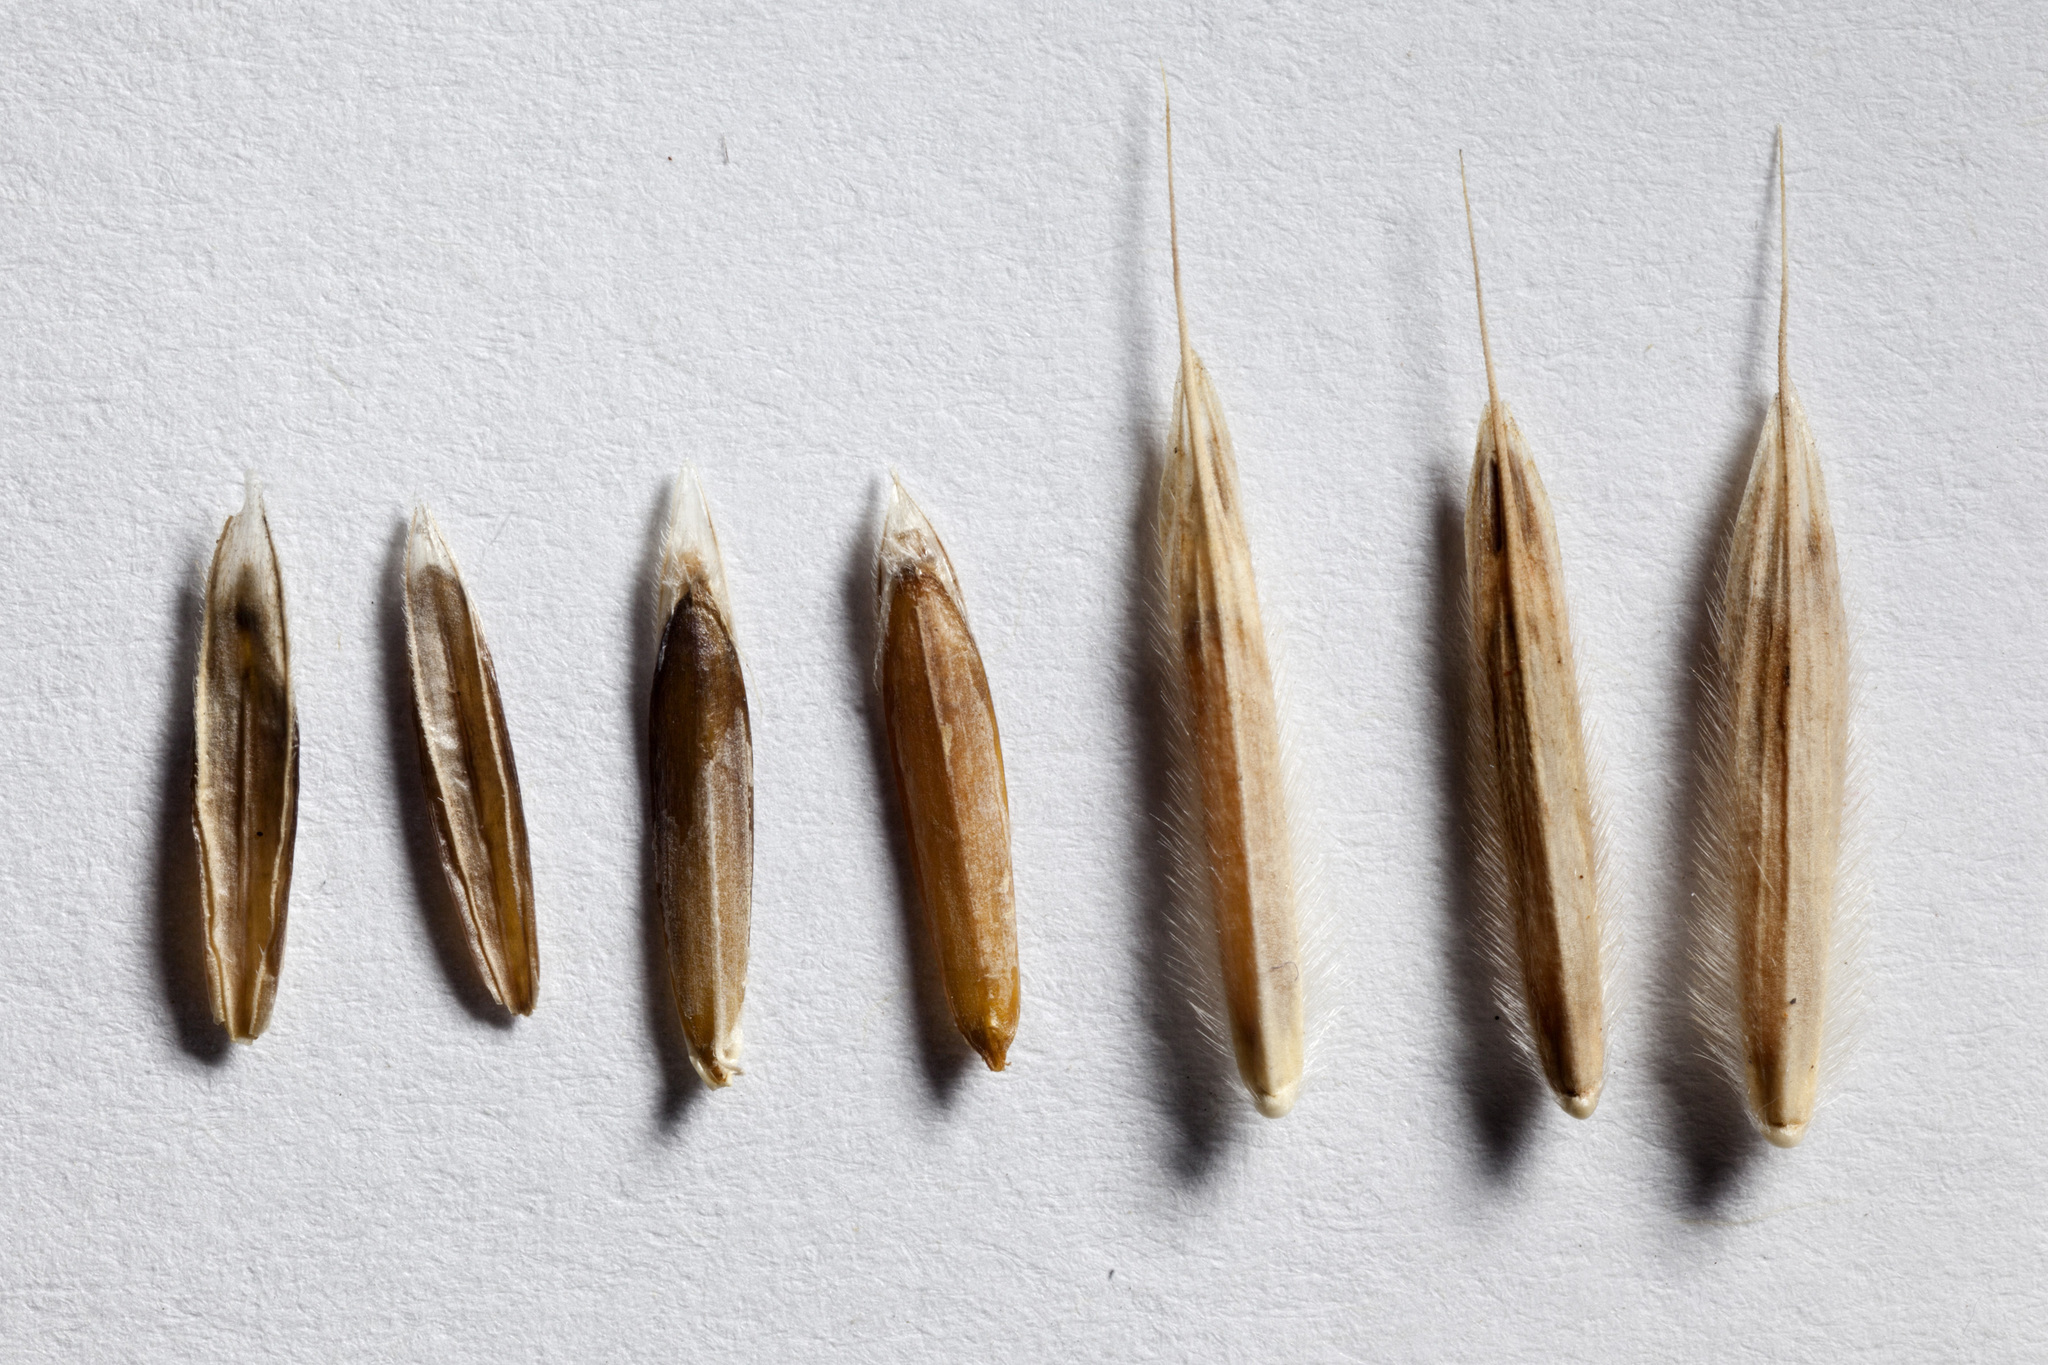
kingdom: Plantae
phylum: Tracheophyta
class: Liliopsida
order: Poales
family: Poaceae
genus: Bromus
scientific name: Bromus ciliatus
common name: Fringe brome
